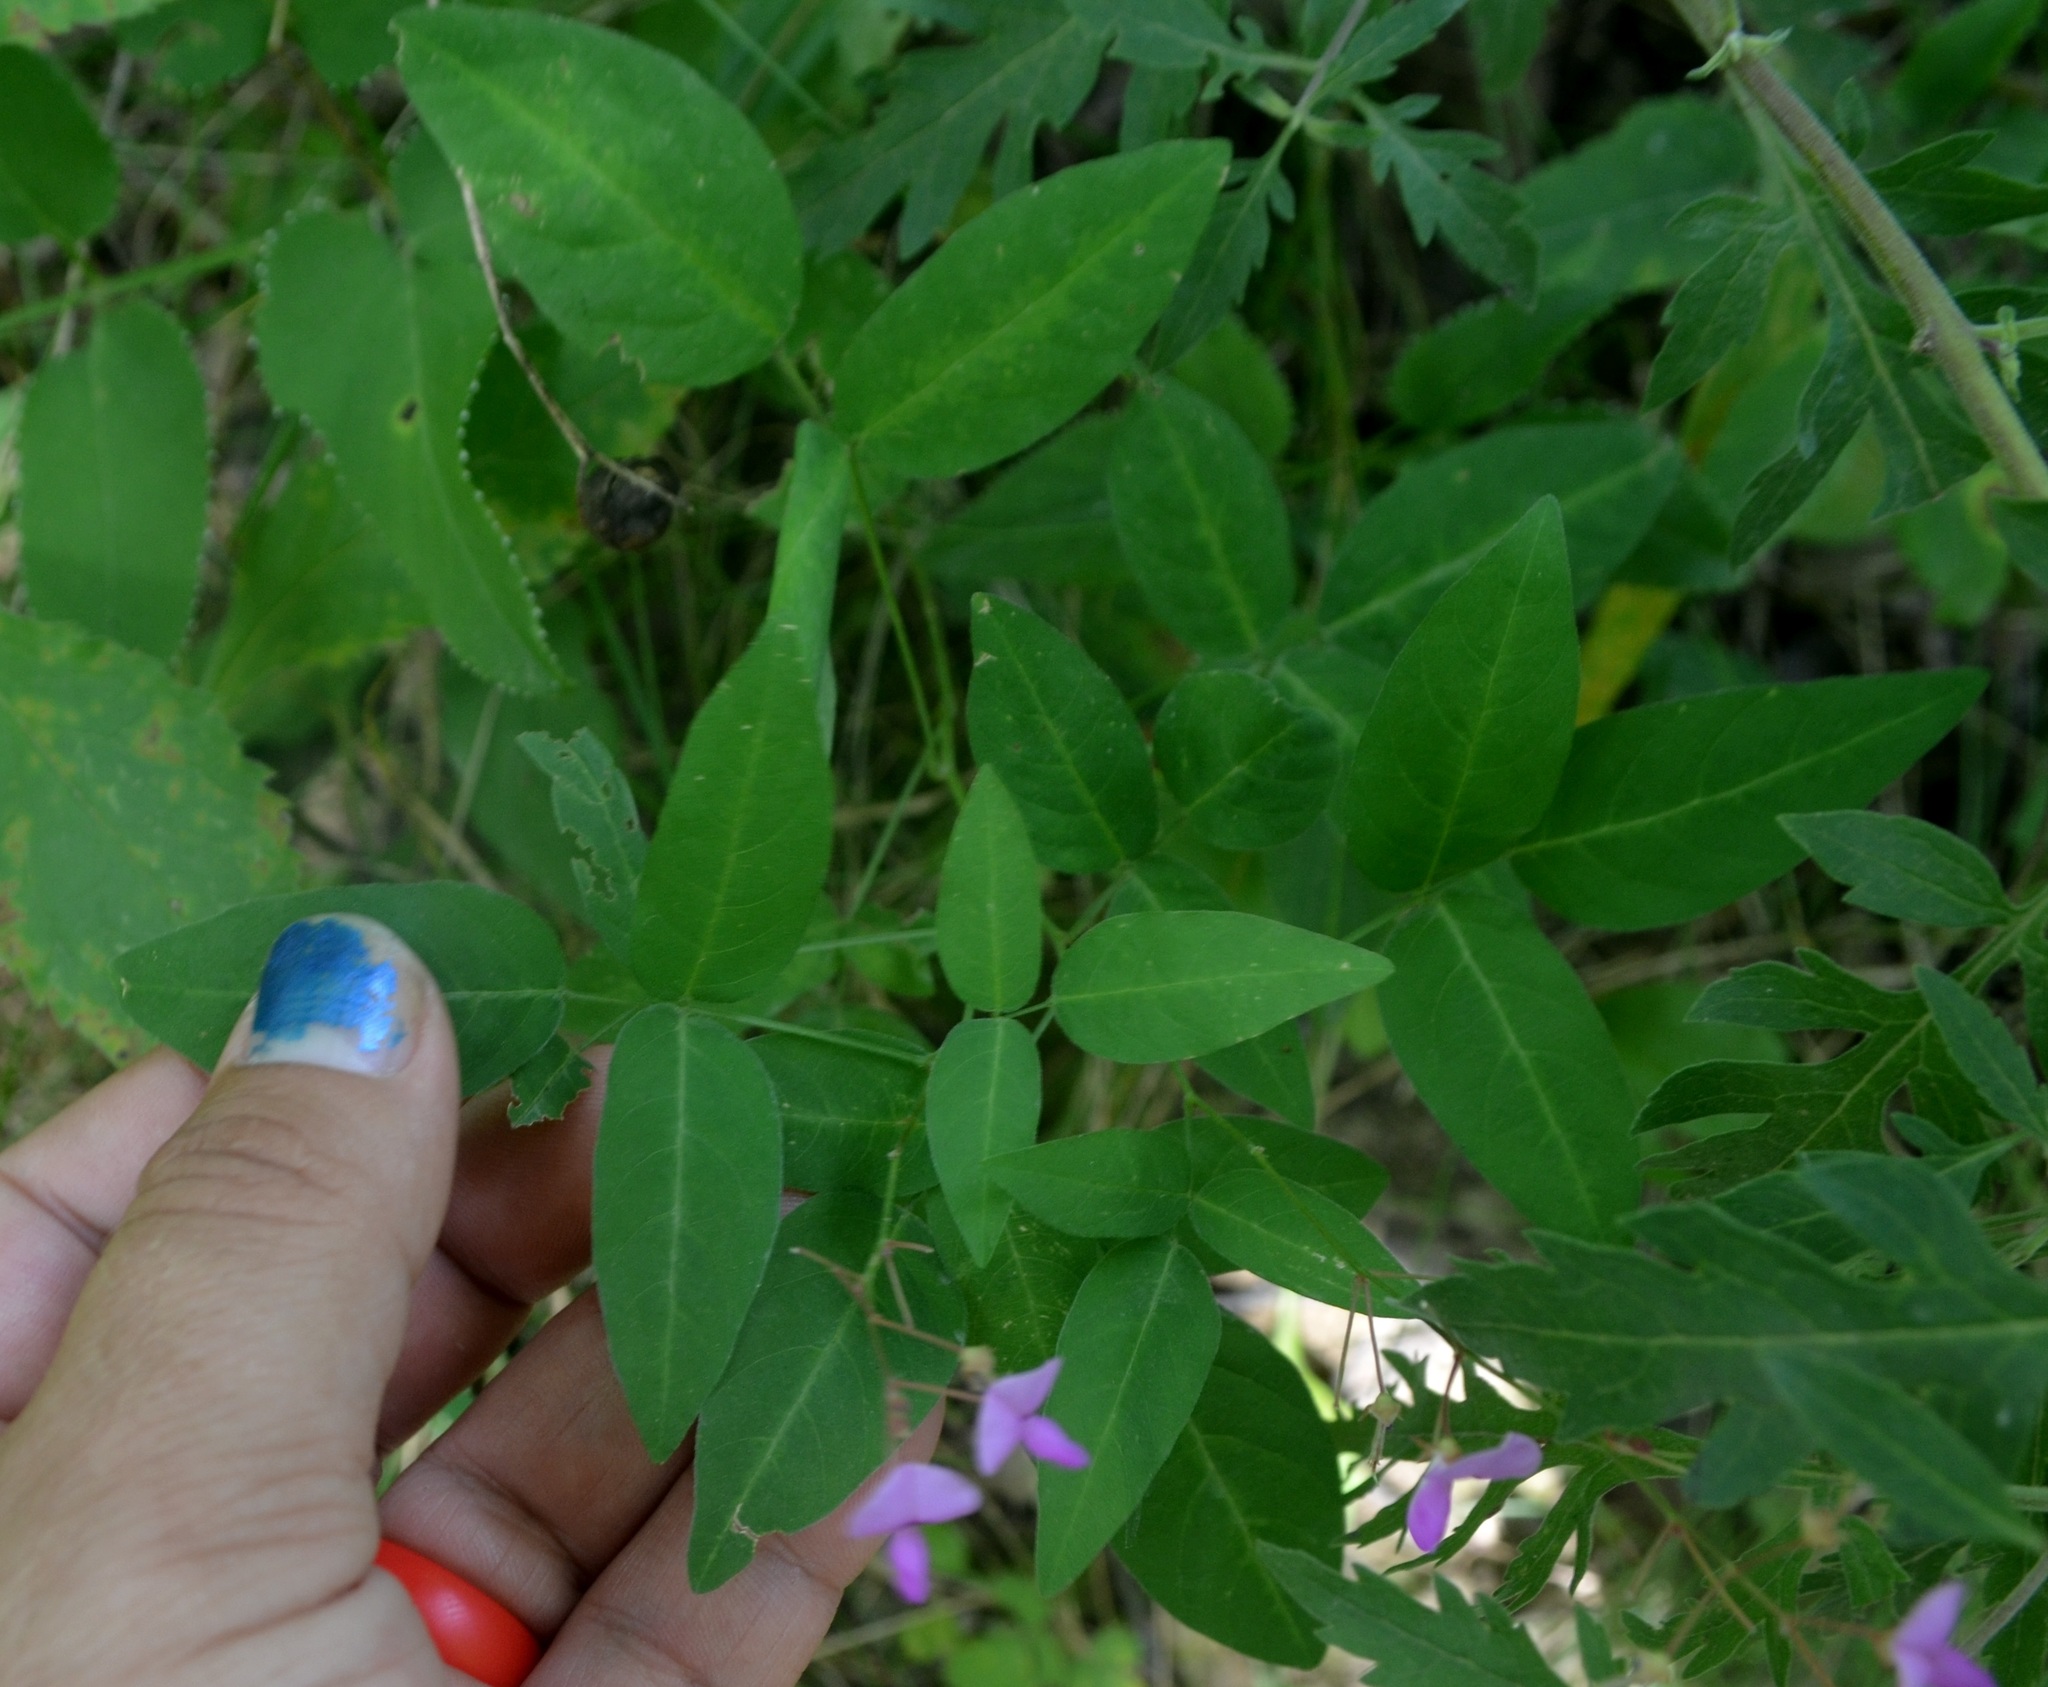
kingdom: Plantae
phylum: Tracheophyta
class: Magnoliopsida
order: Fabales
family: Fabaceae
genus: Desmodium
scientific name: Desmodium paniculatum
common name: Panicled tick-clover
